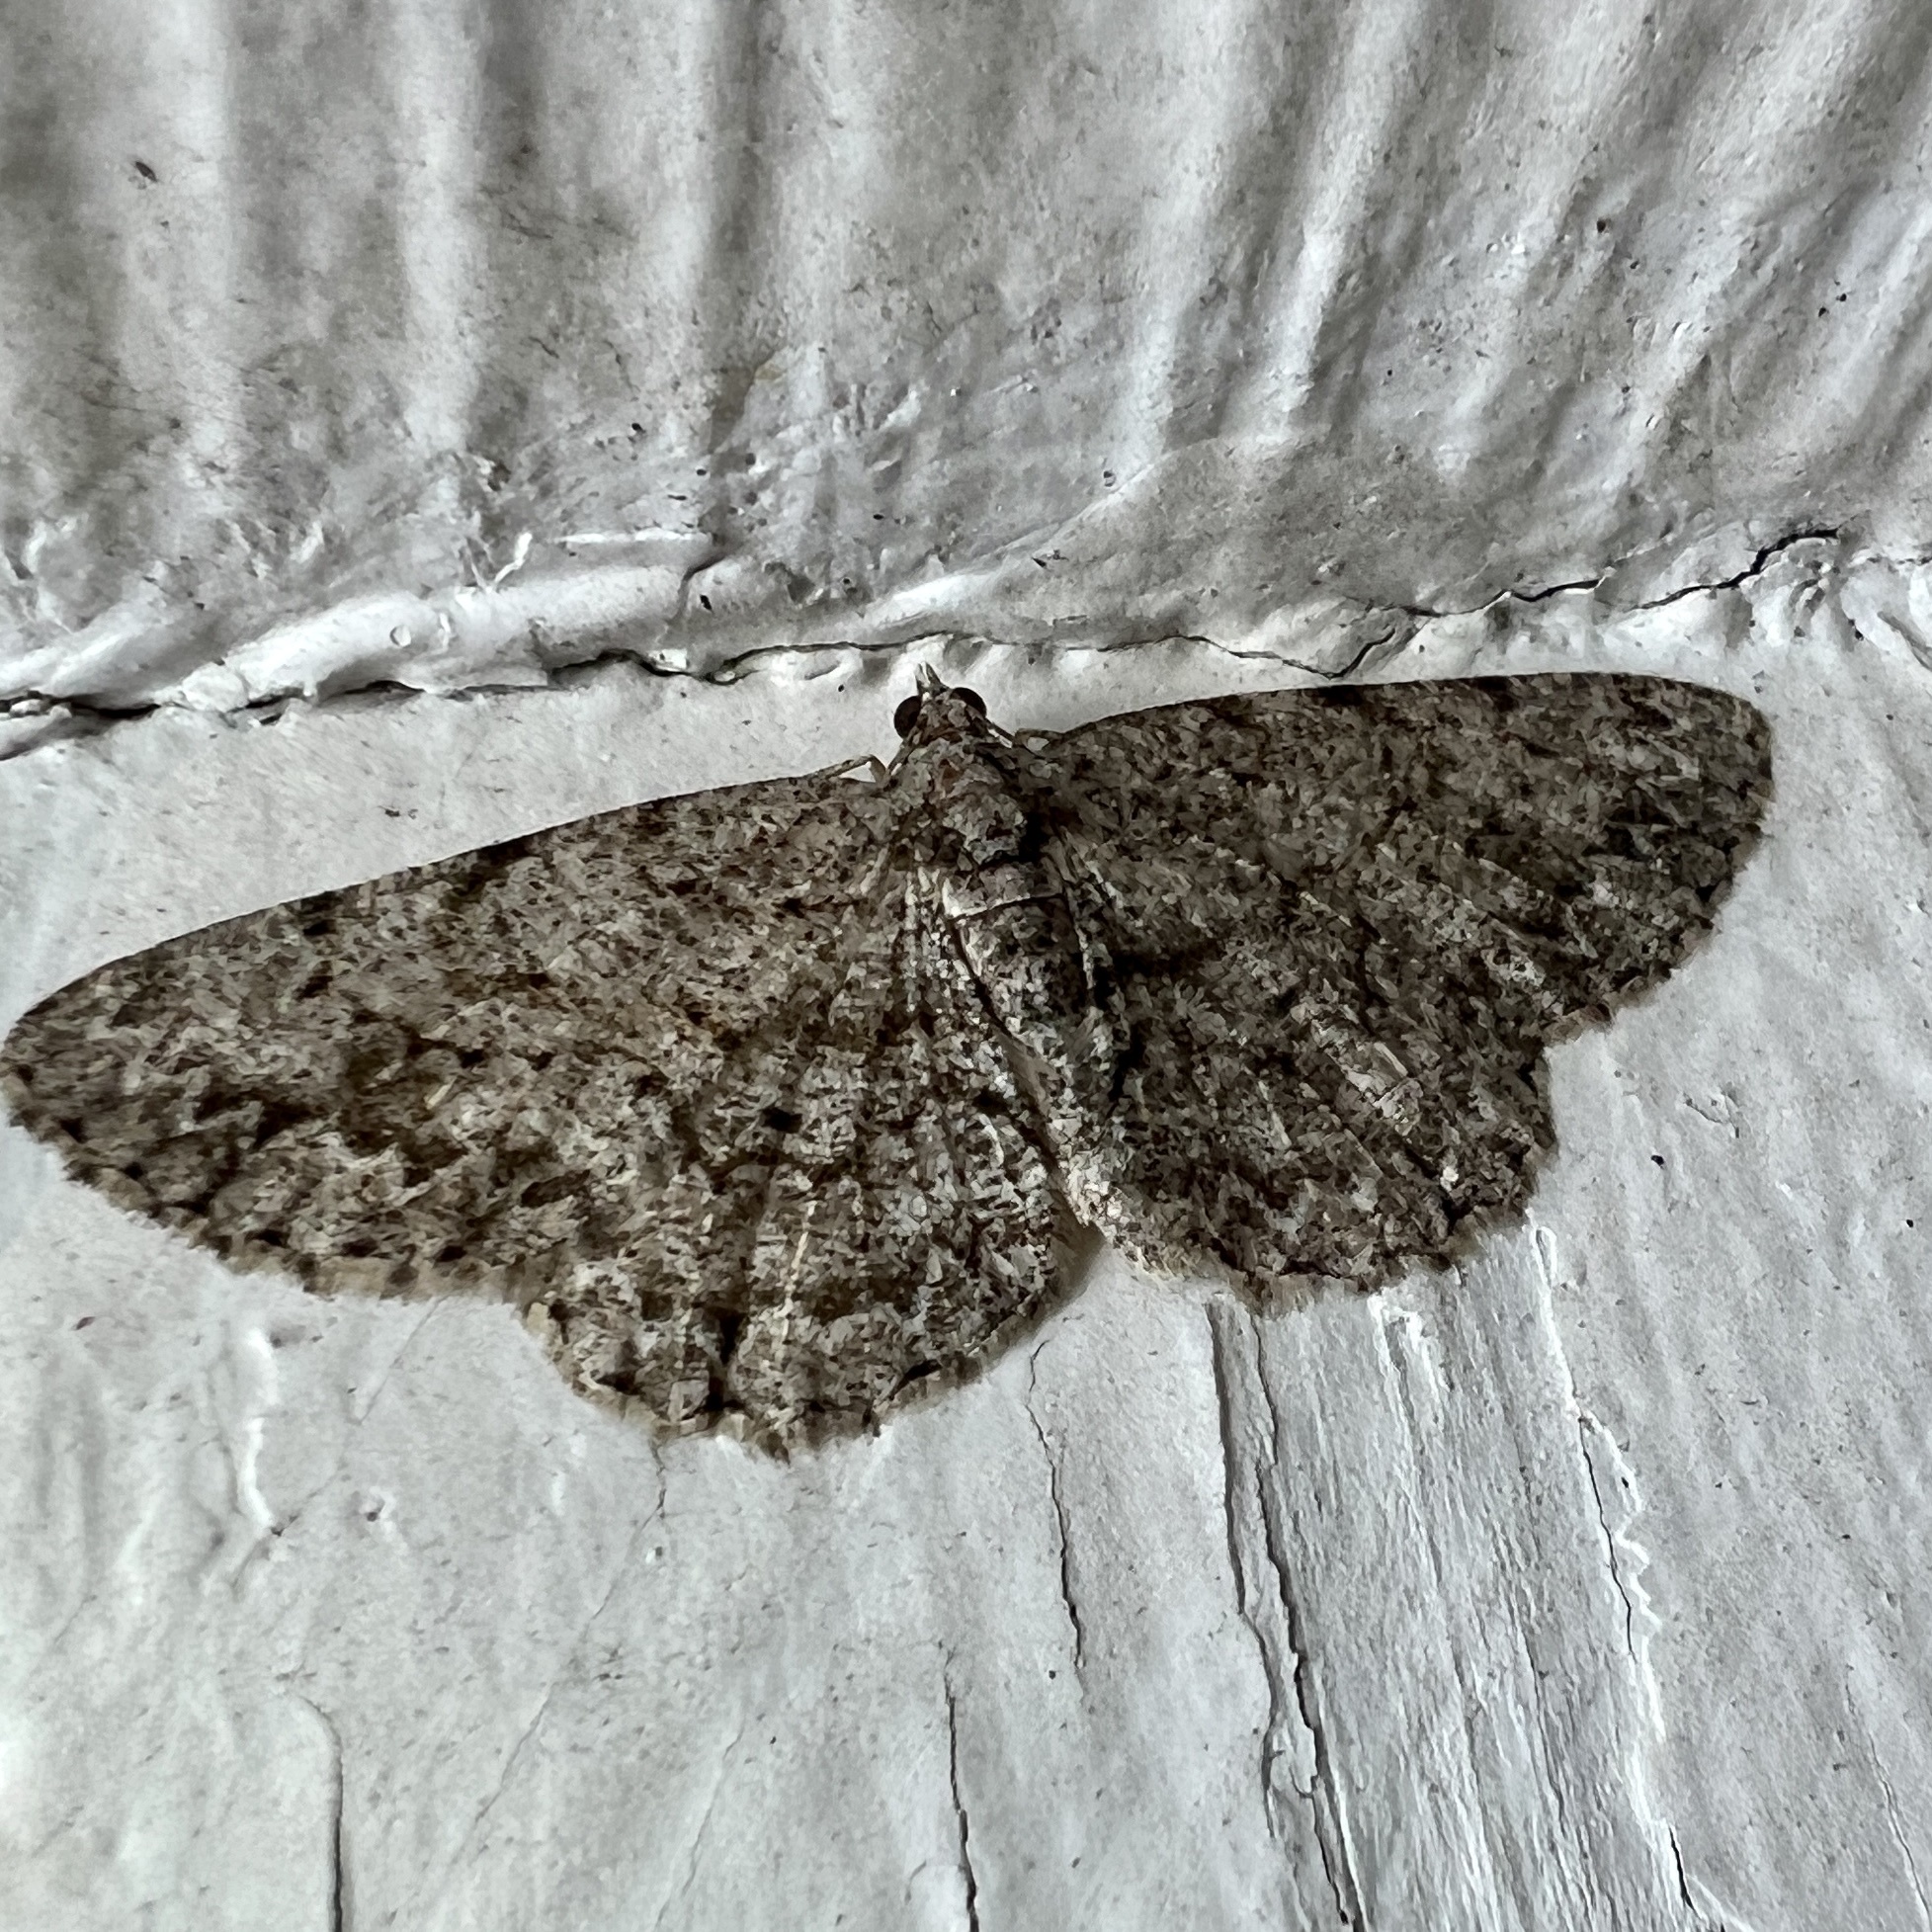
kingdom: Animalia
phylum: Arthropoda
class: Insecta
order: Lepidoptera
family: Geometridae
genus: Protoboarmia
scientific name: Protoboarmia porcelaria
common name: Porcelain gray
